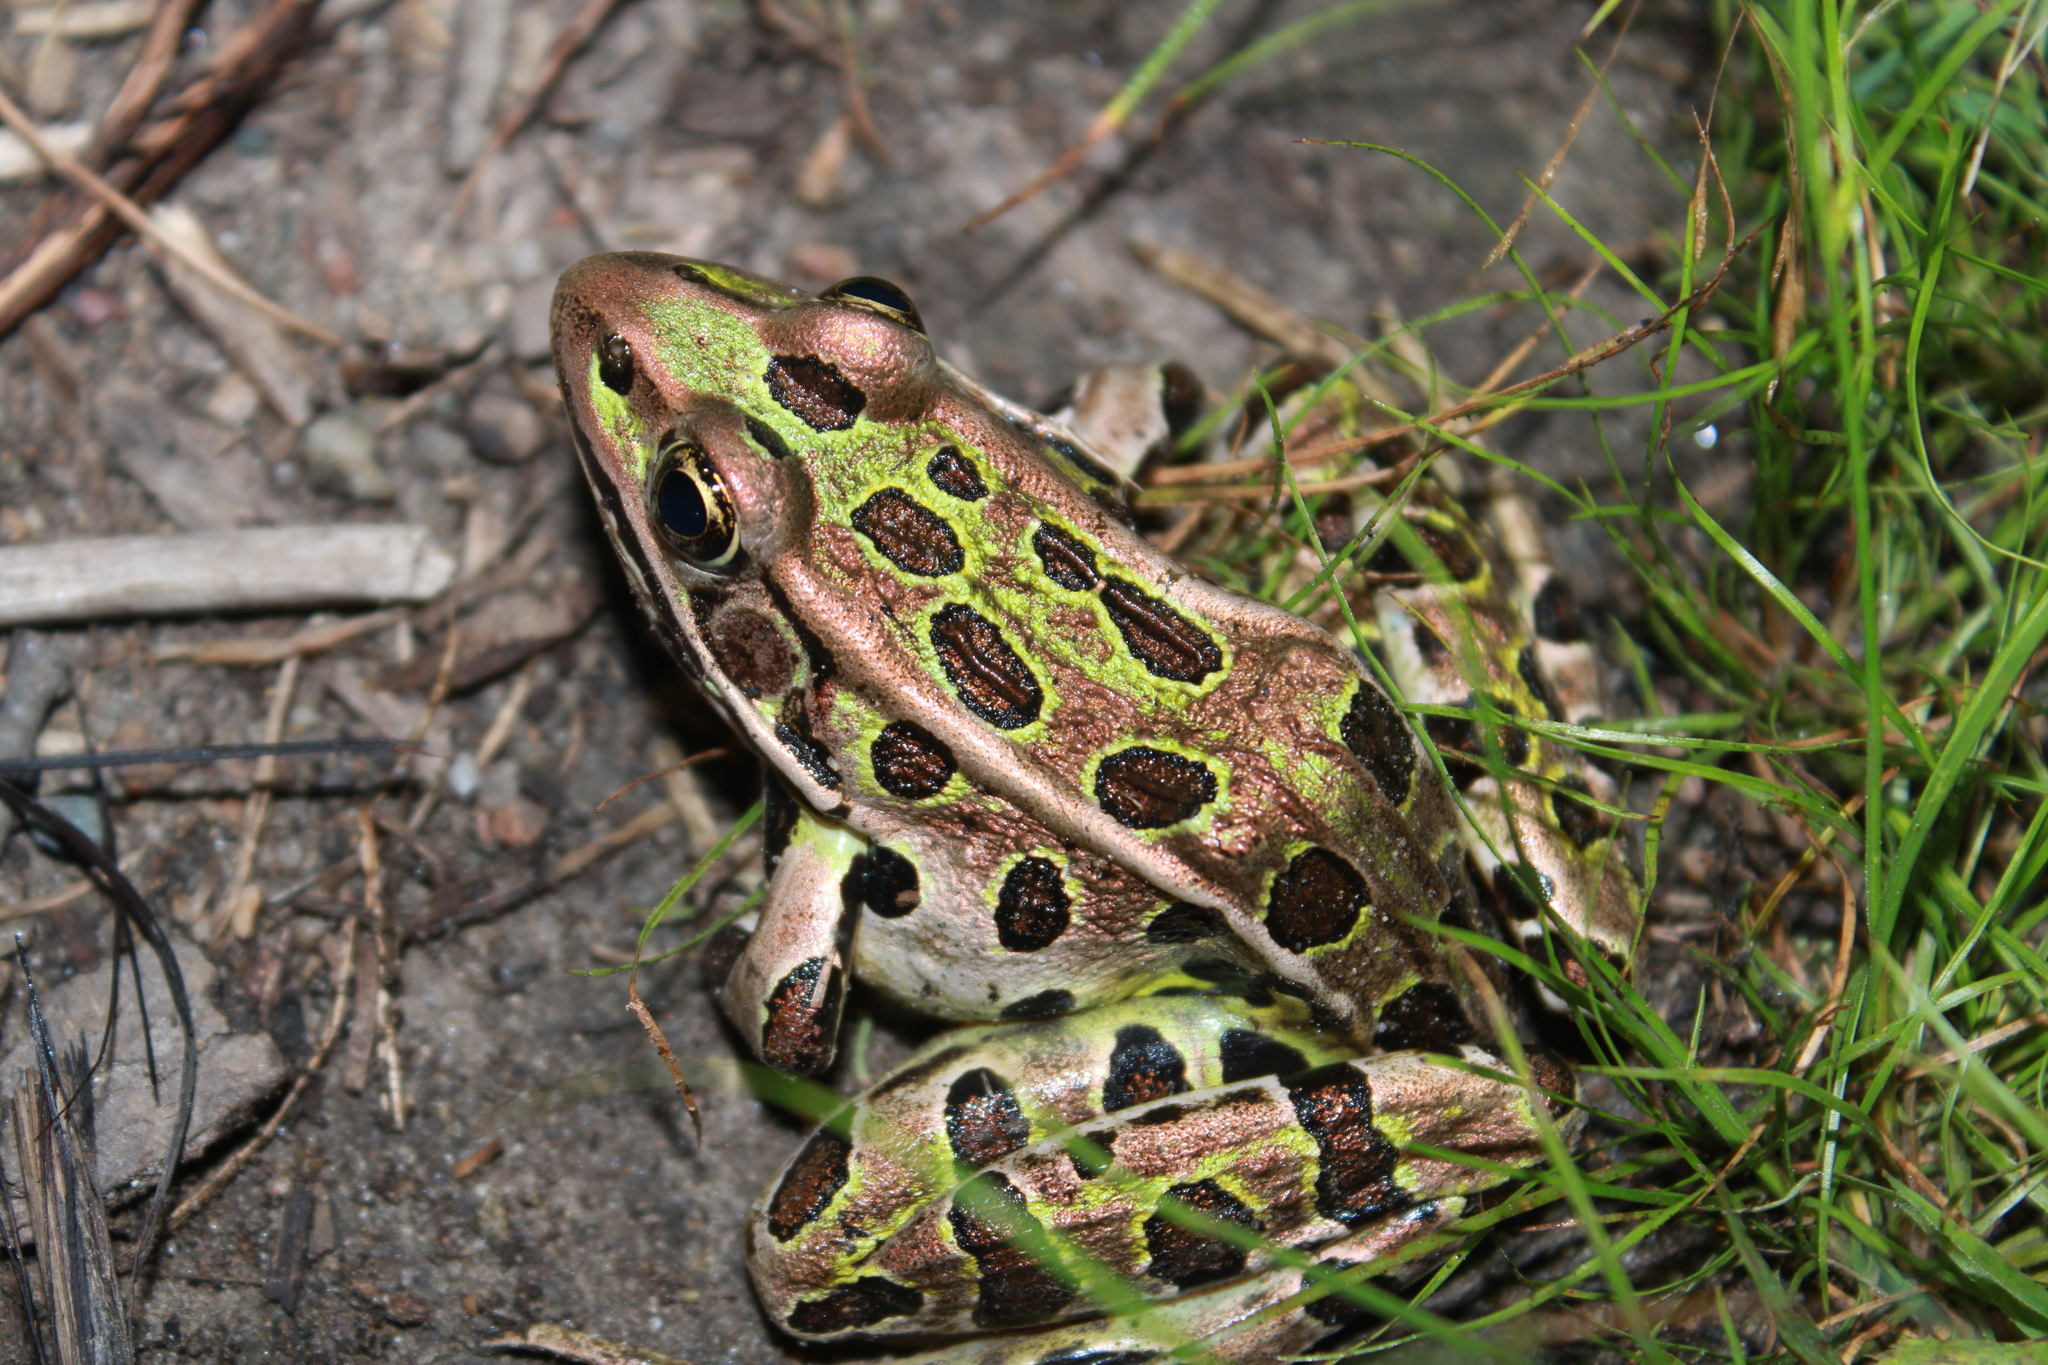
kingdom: Animalia
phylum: Chordata
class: Amphibia
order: Anura
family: Ranidae
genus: Lithobates
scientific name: Lithobates pipiens
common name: Northern leopard frog
